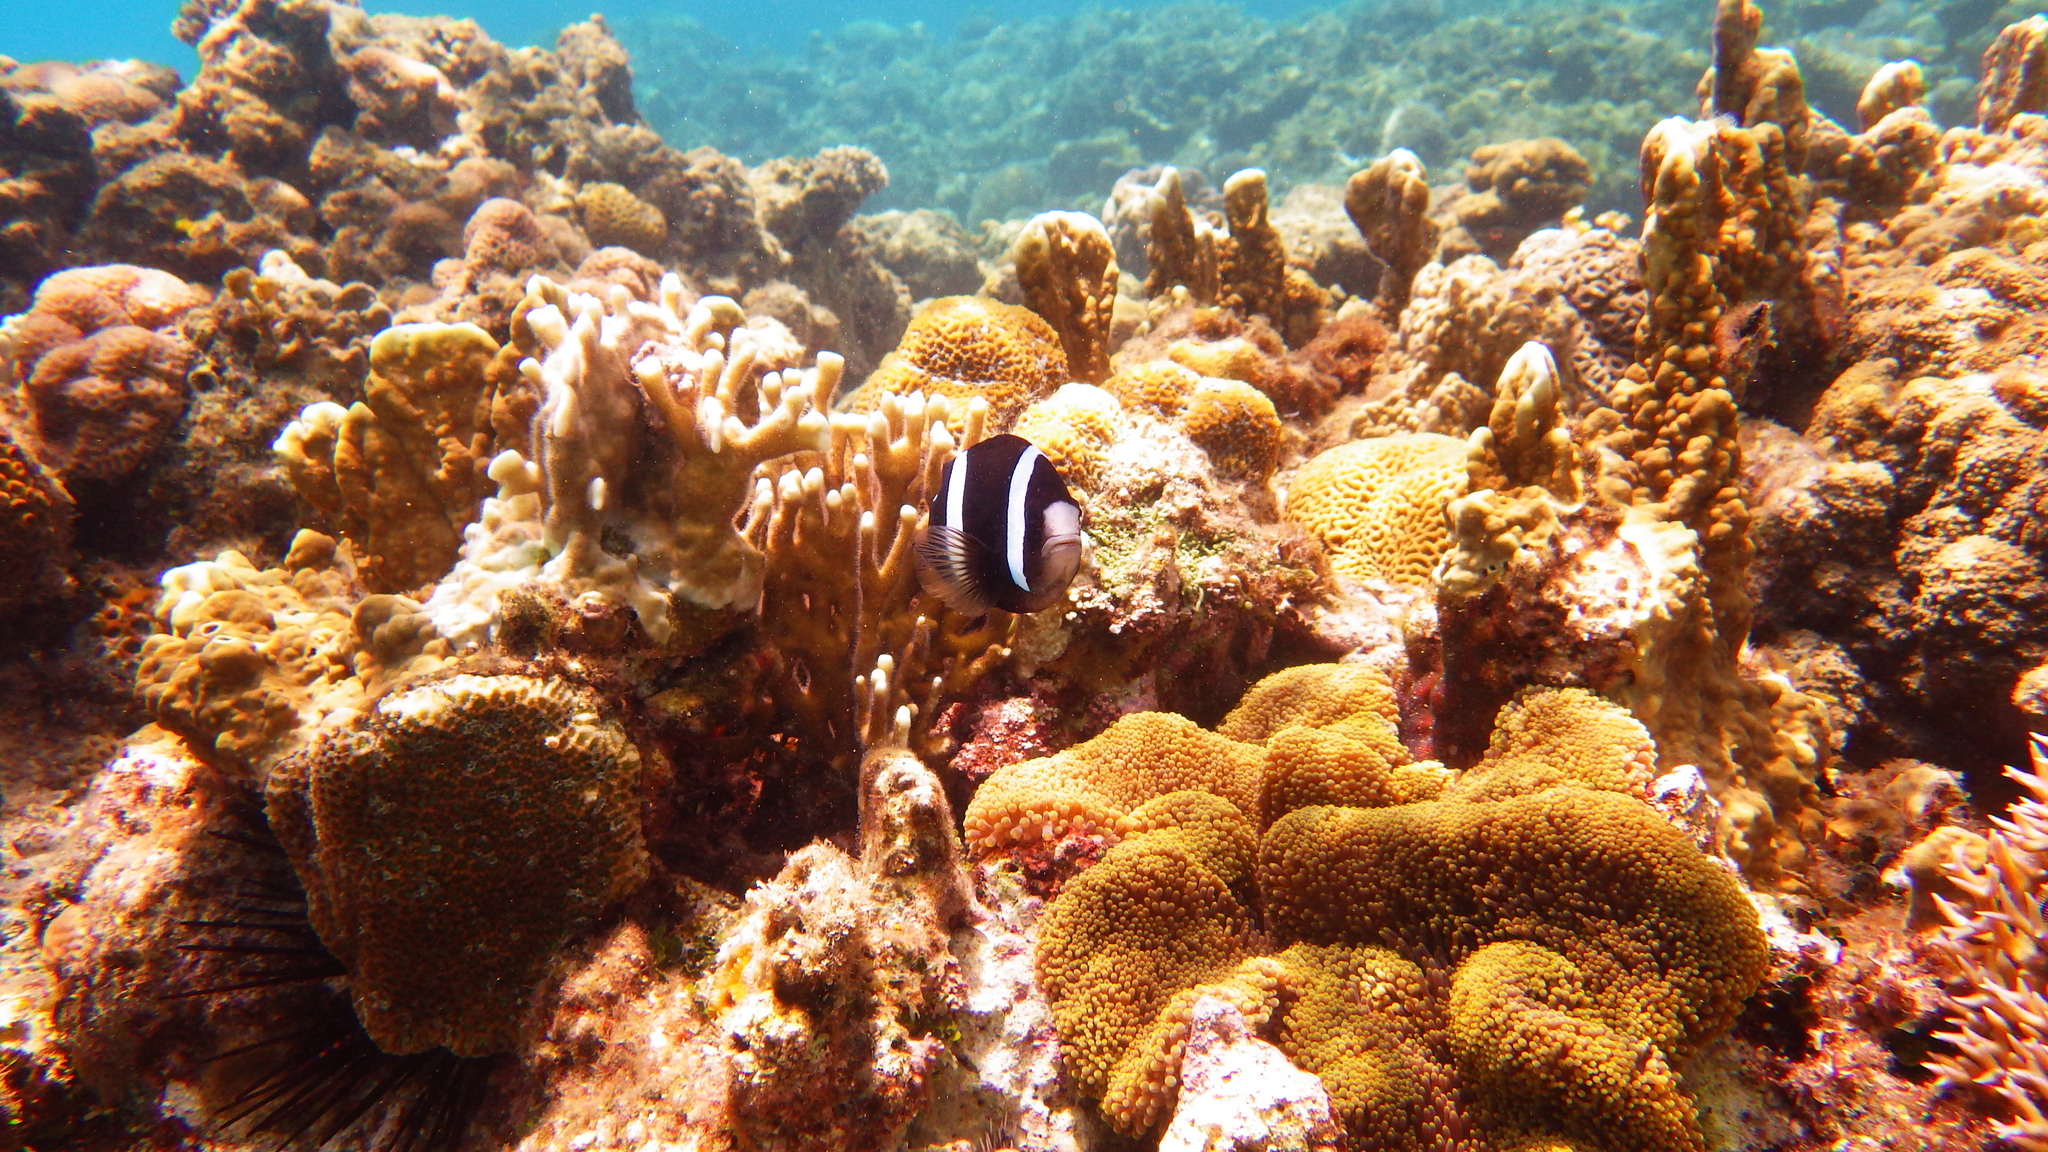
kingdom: Animalia
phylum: Chordata
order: Perciformes
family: Pomacentridae
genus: Amphiprion
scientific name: Amphiprion clarkii
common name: Clark's anemonefish
